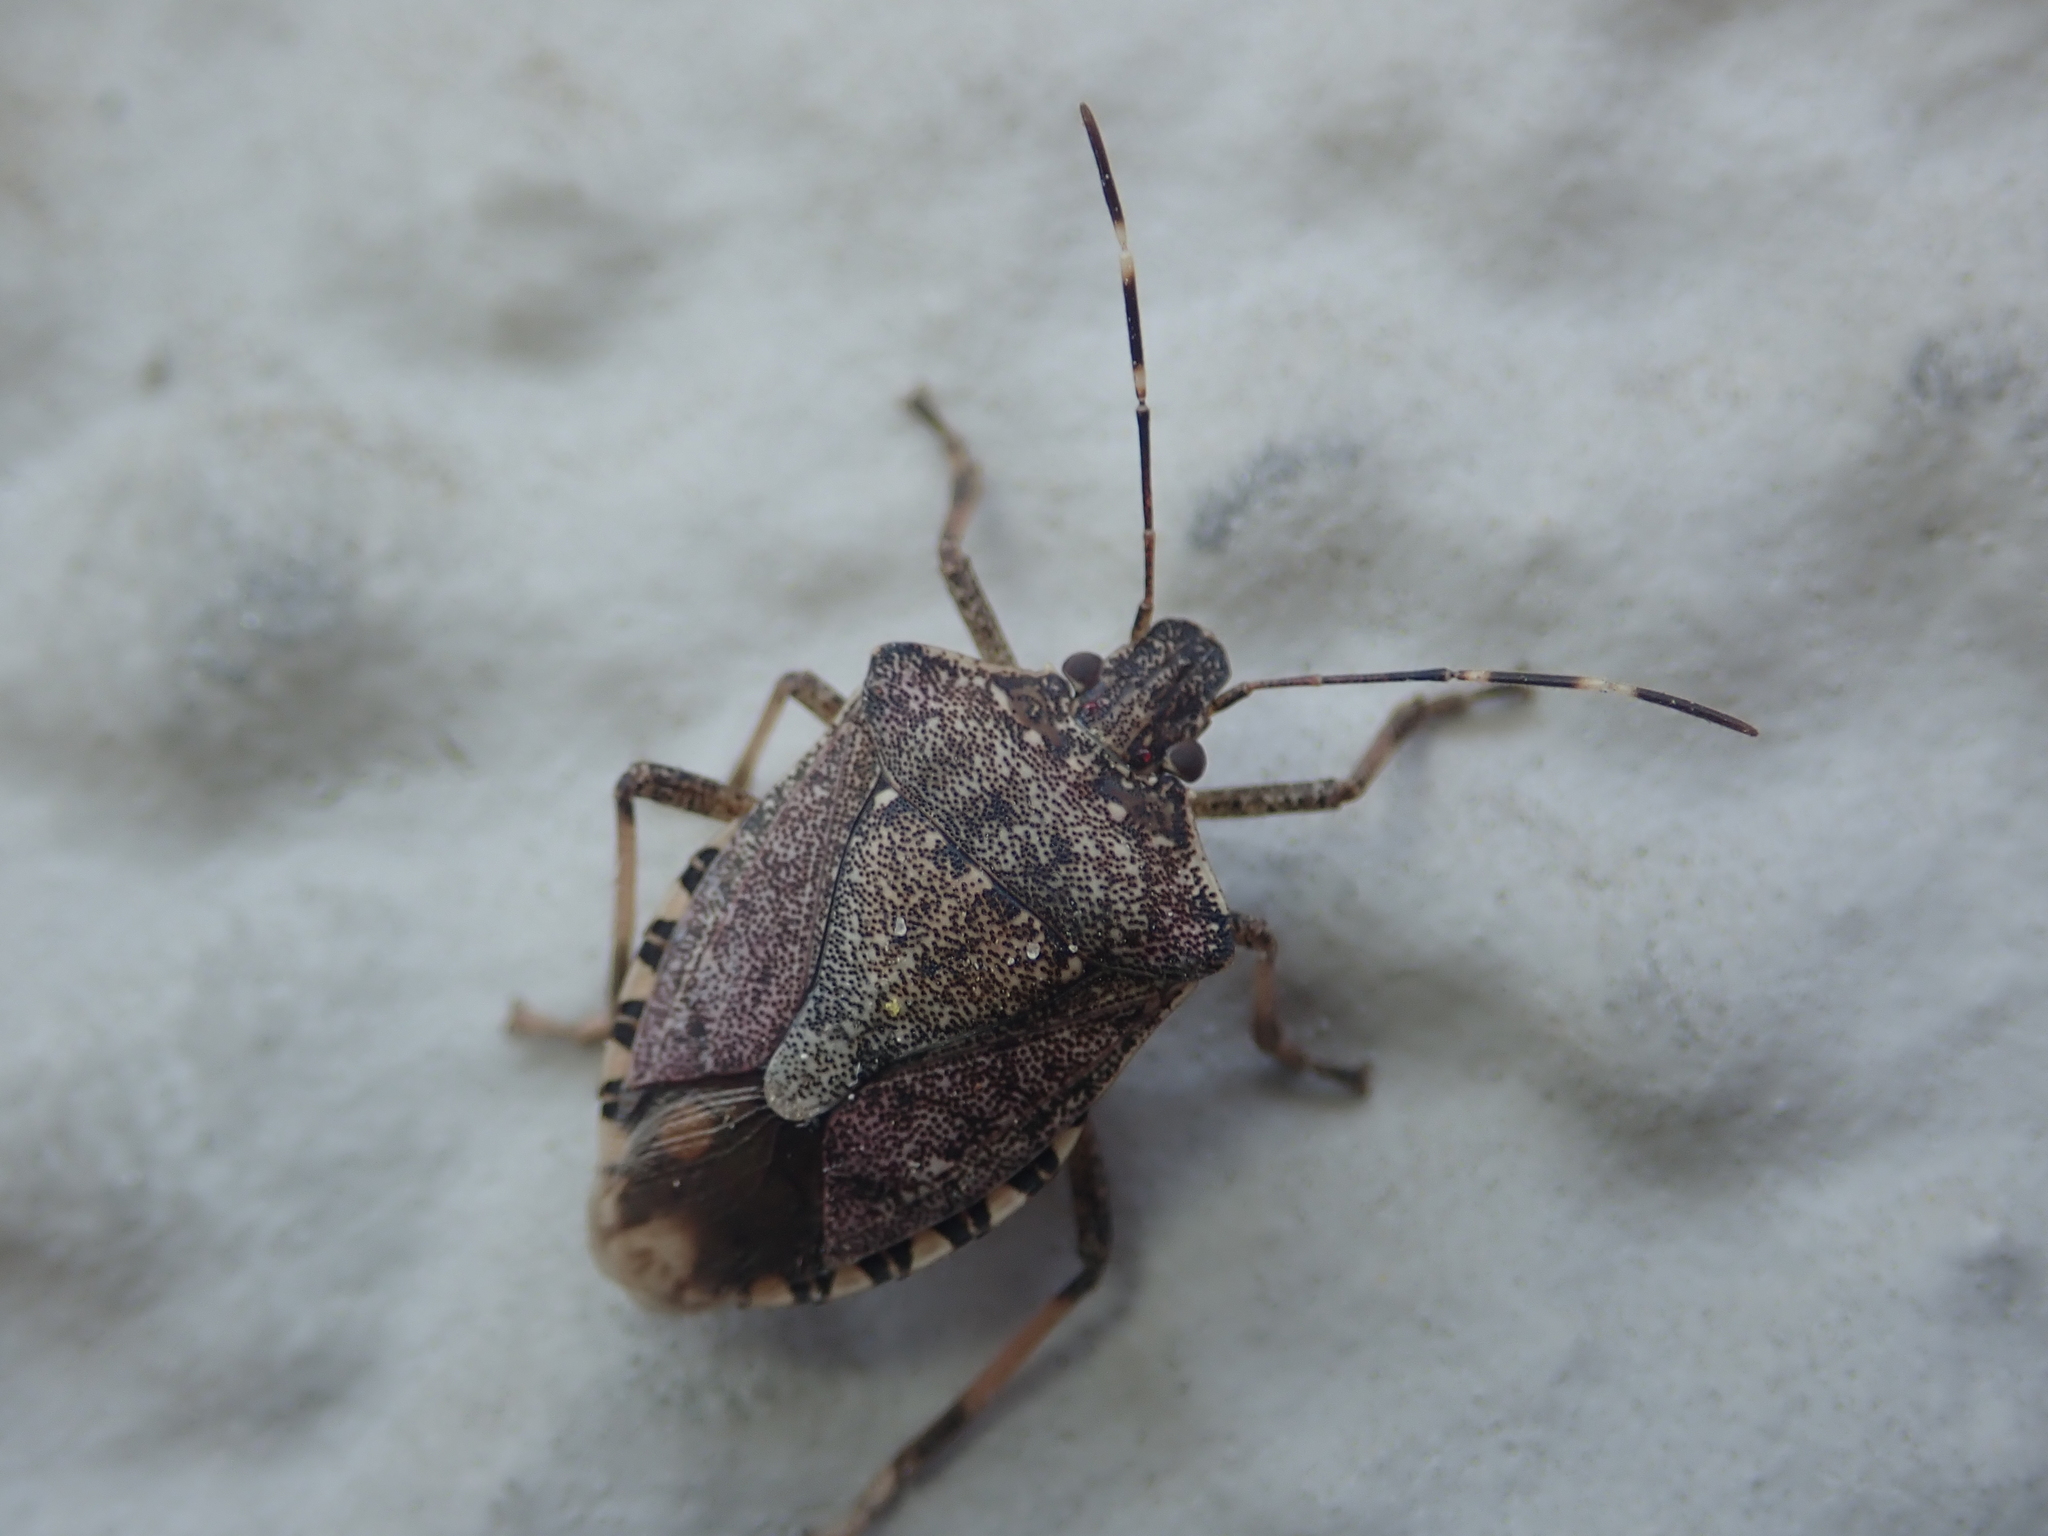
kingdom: Animalia
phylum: Arthropoda
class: Insecta
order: Hemiptera
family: Pentatomidae
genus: Halyomorpha
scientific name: Halyomorpha halys
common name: Brown marmorated stink bug
